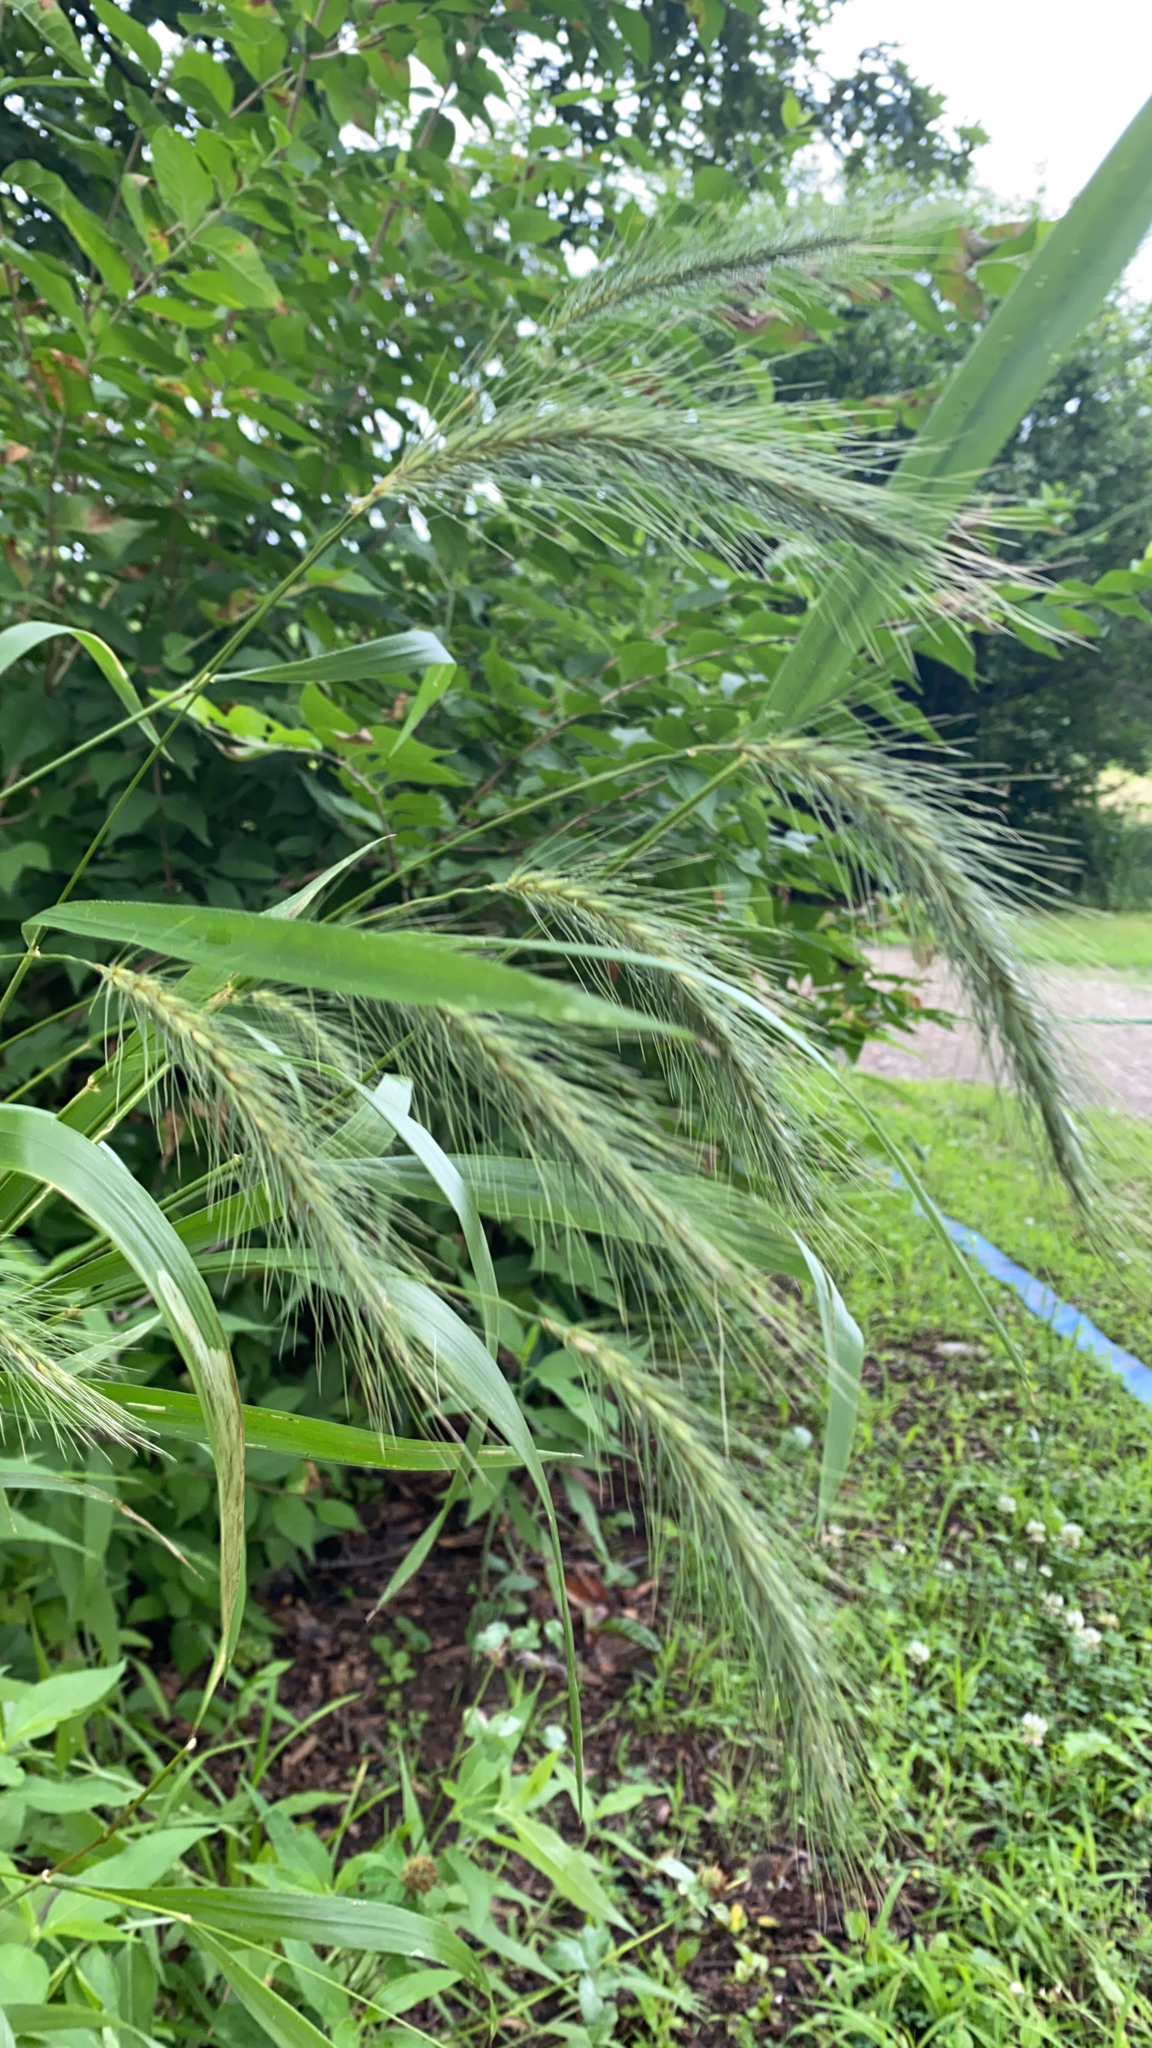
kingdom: Plantae
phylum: Tracheophyta
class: Liliopsida
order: Poales
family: Poaceae
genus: Elymus
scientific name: Elymus canadensis
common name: Canada wild rye
